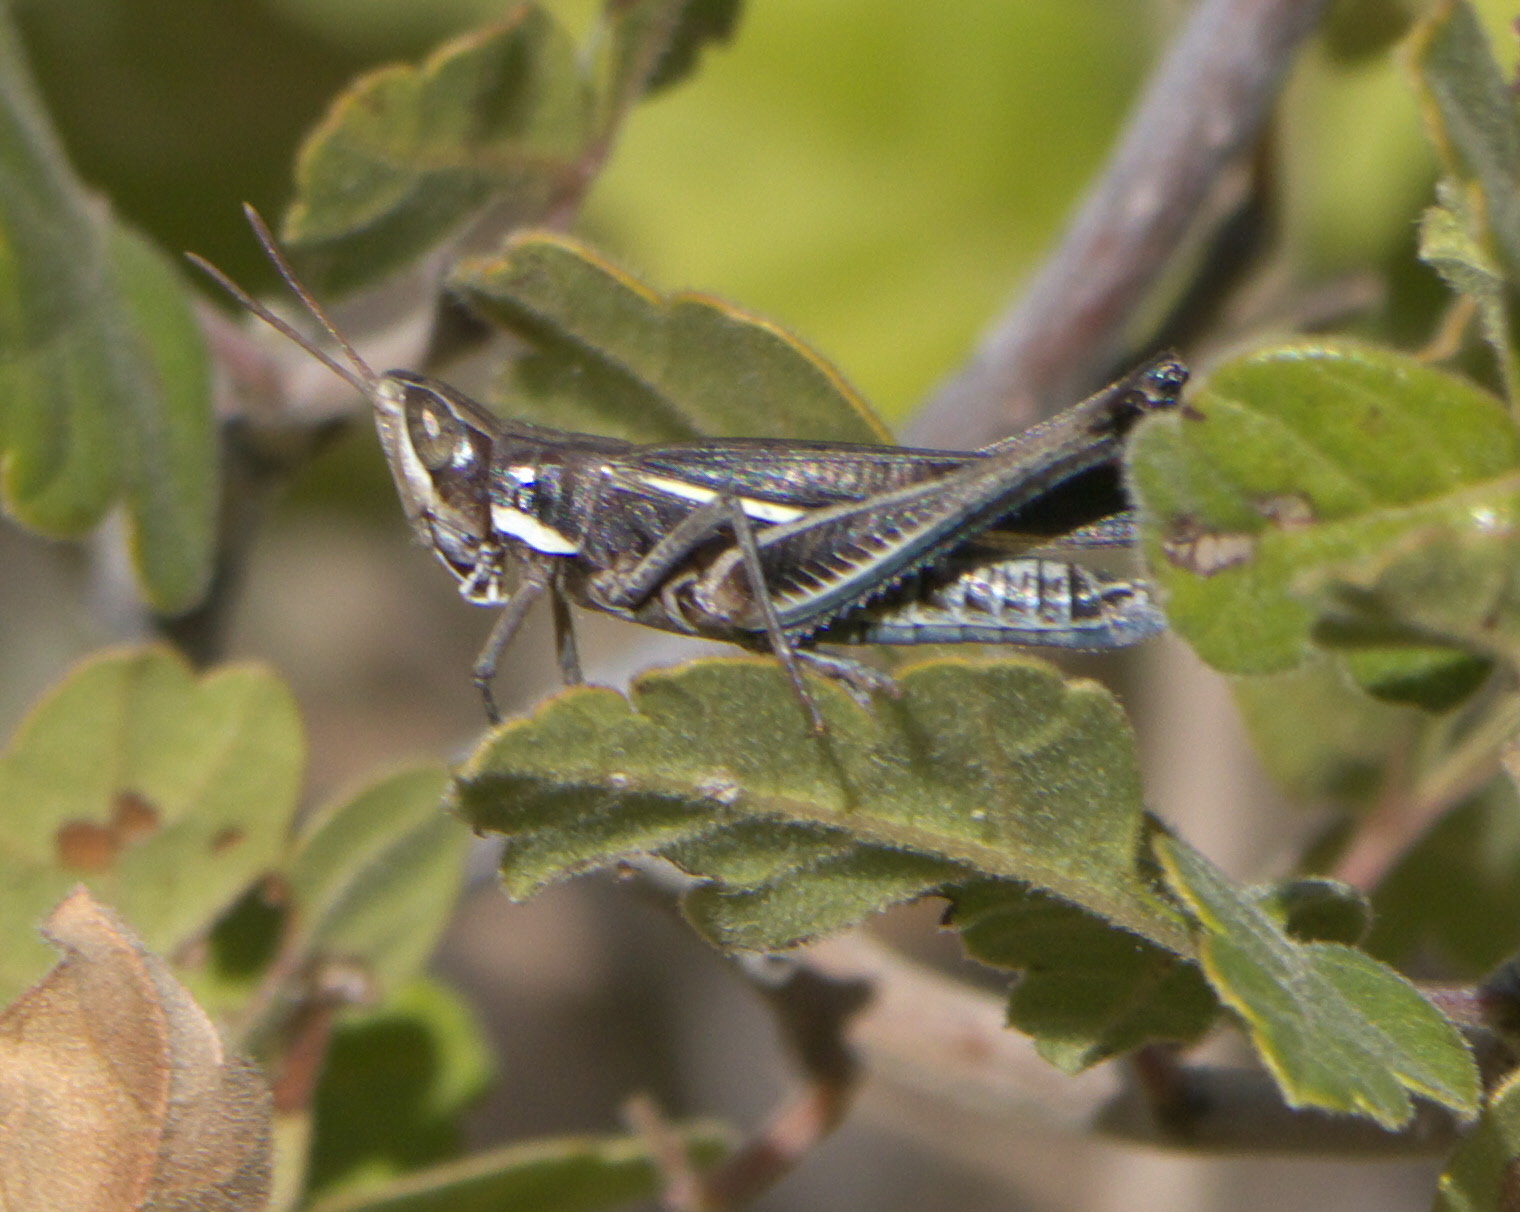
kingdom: Animalia
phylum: Arthropoda
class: Insecta
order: Orthoptera
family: Acrididae
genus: Syrbula
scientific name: Syrbula montezuma
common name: Montezuma's grasshopper
